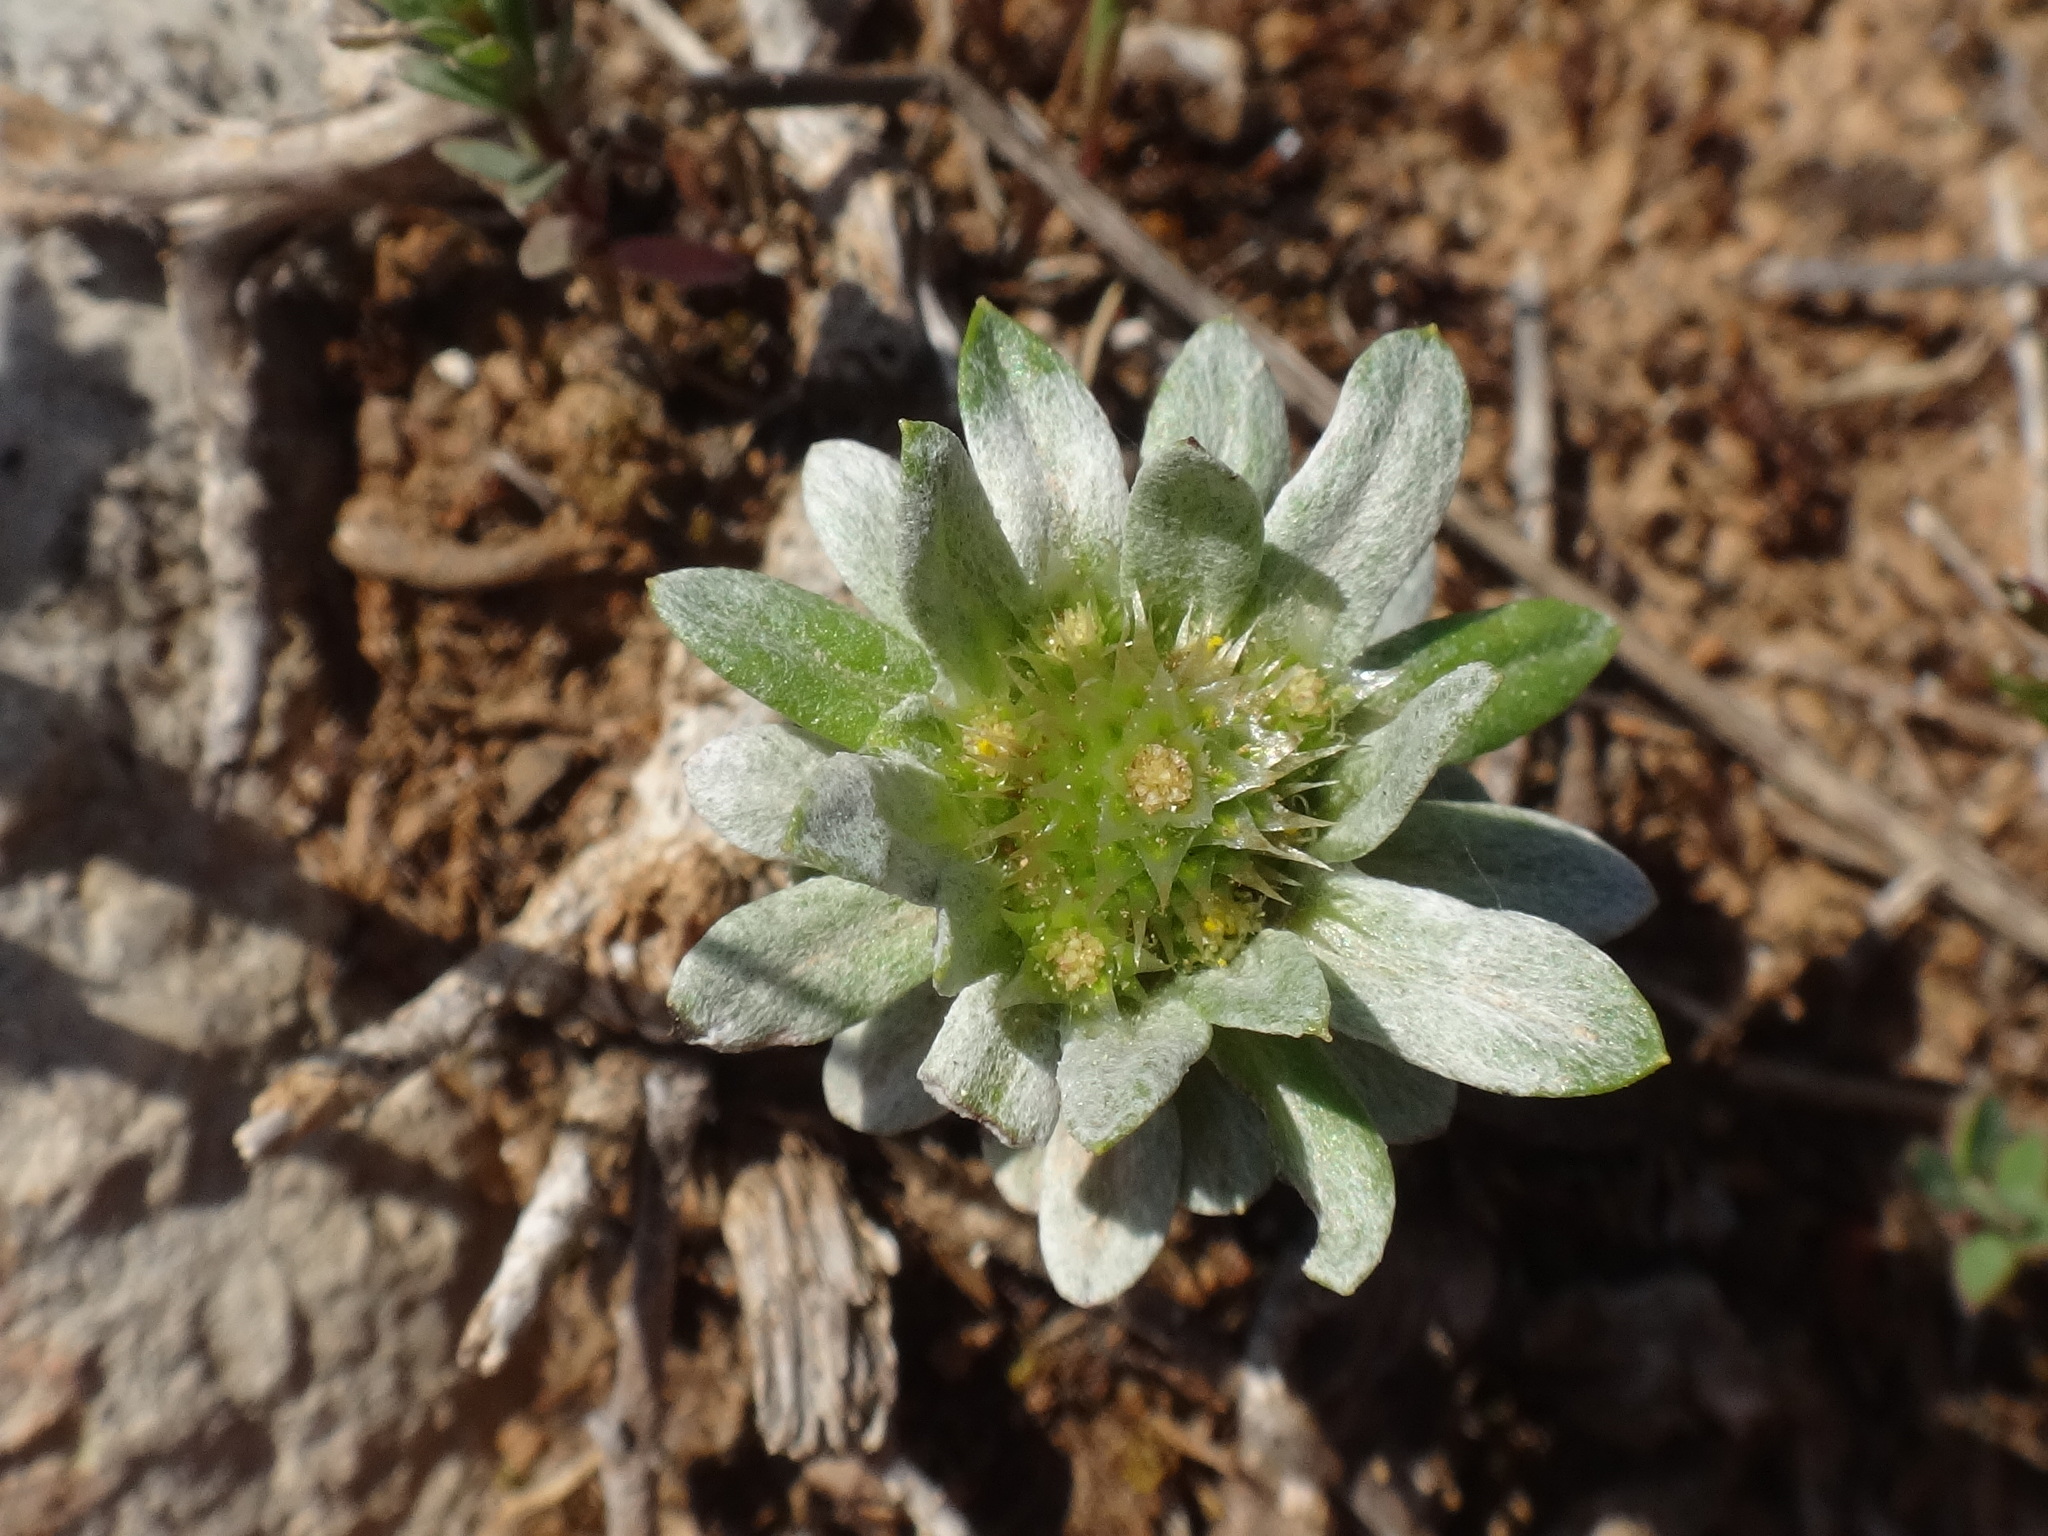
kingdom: Plantae
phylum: Tracheophyta
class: Magnoliopsida
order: Asterales
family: Asteraceae
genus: Filago
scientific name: Filago pygmaea
